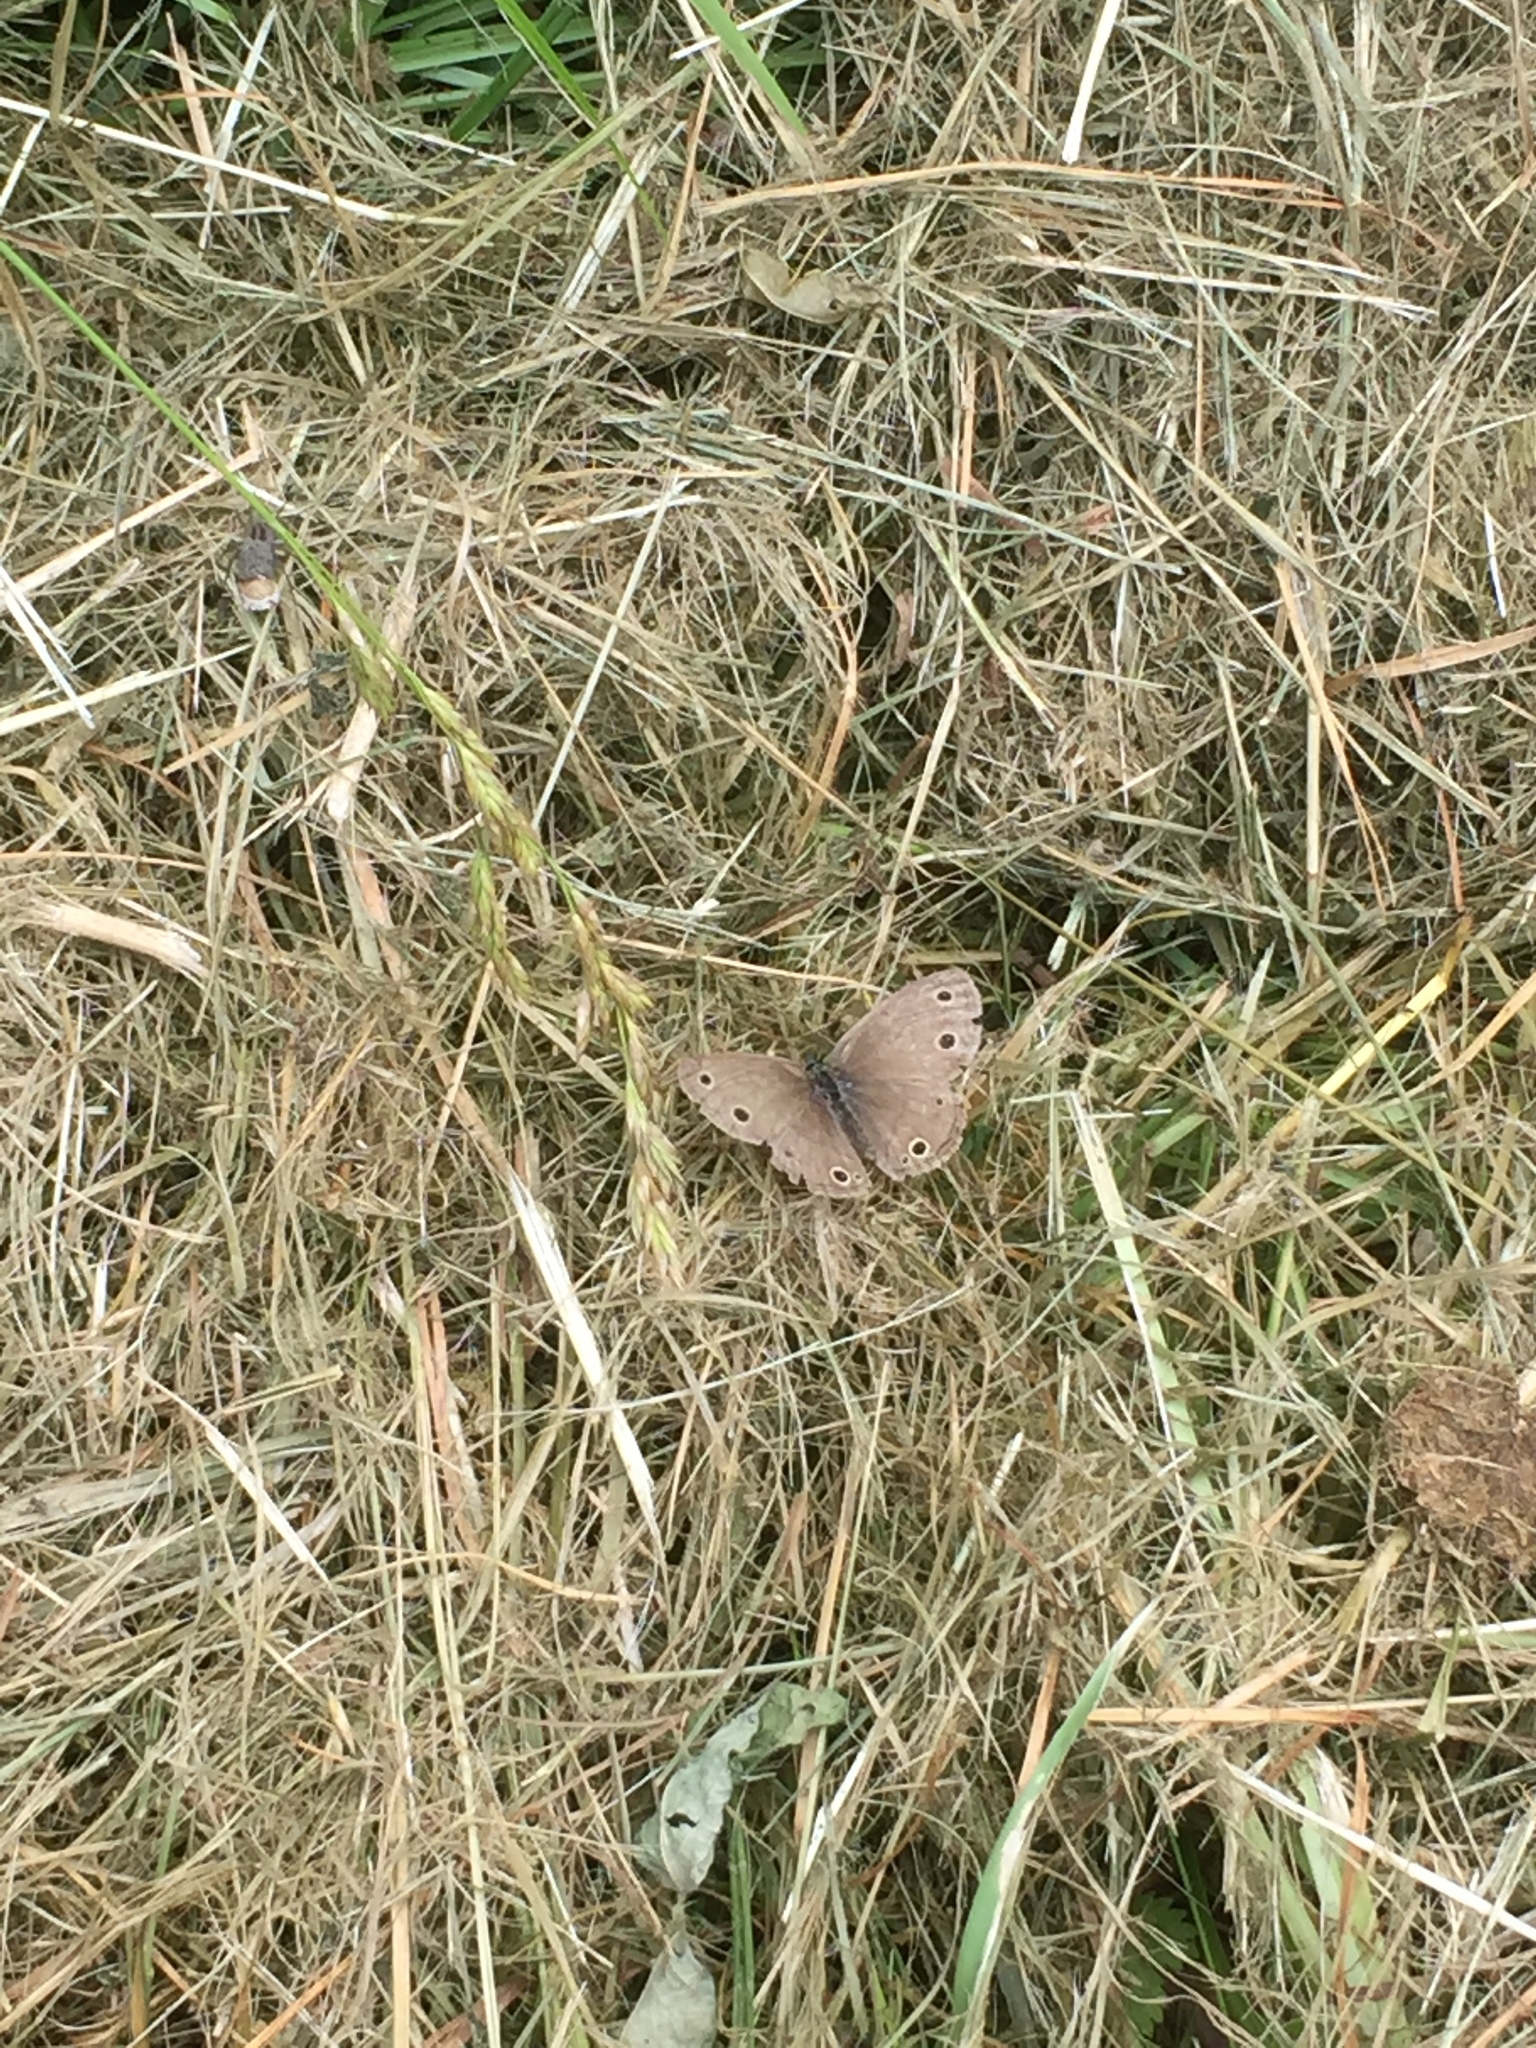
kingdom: Animalia
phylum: Arthropoda
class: Insecta
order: Lepidoptera
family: Nymphalidae
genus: Euptychia
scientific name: Euptychia cymela
